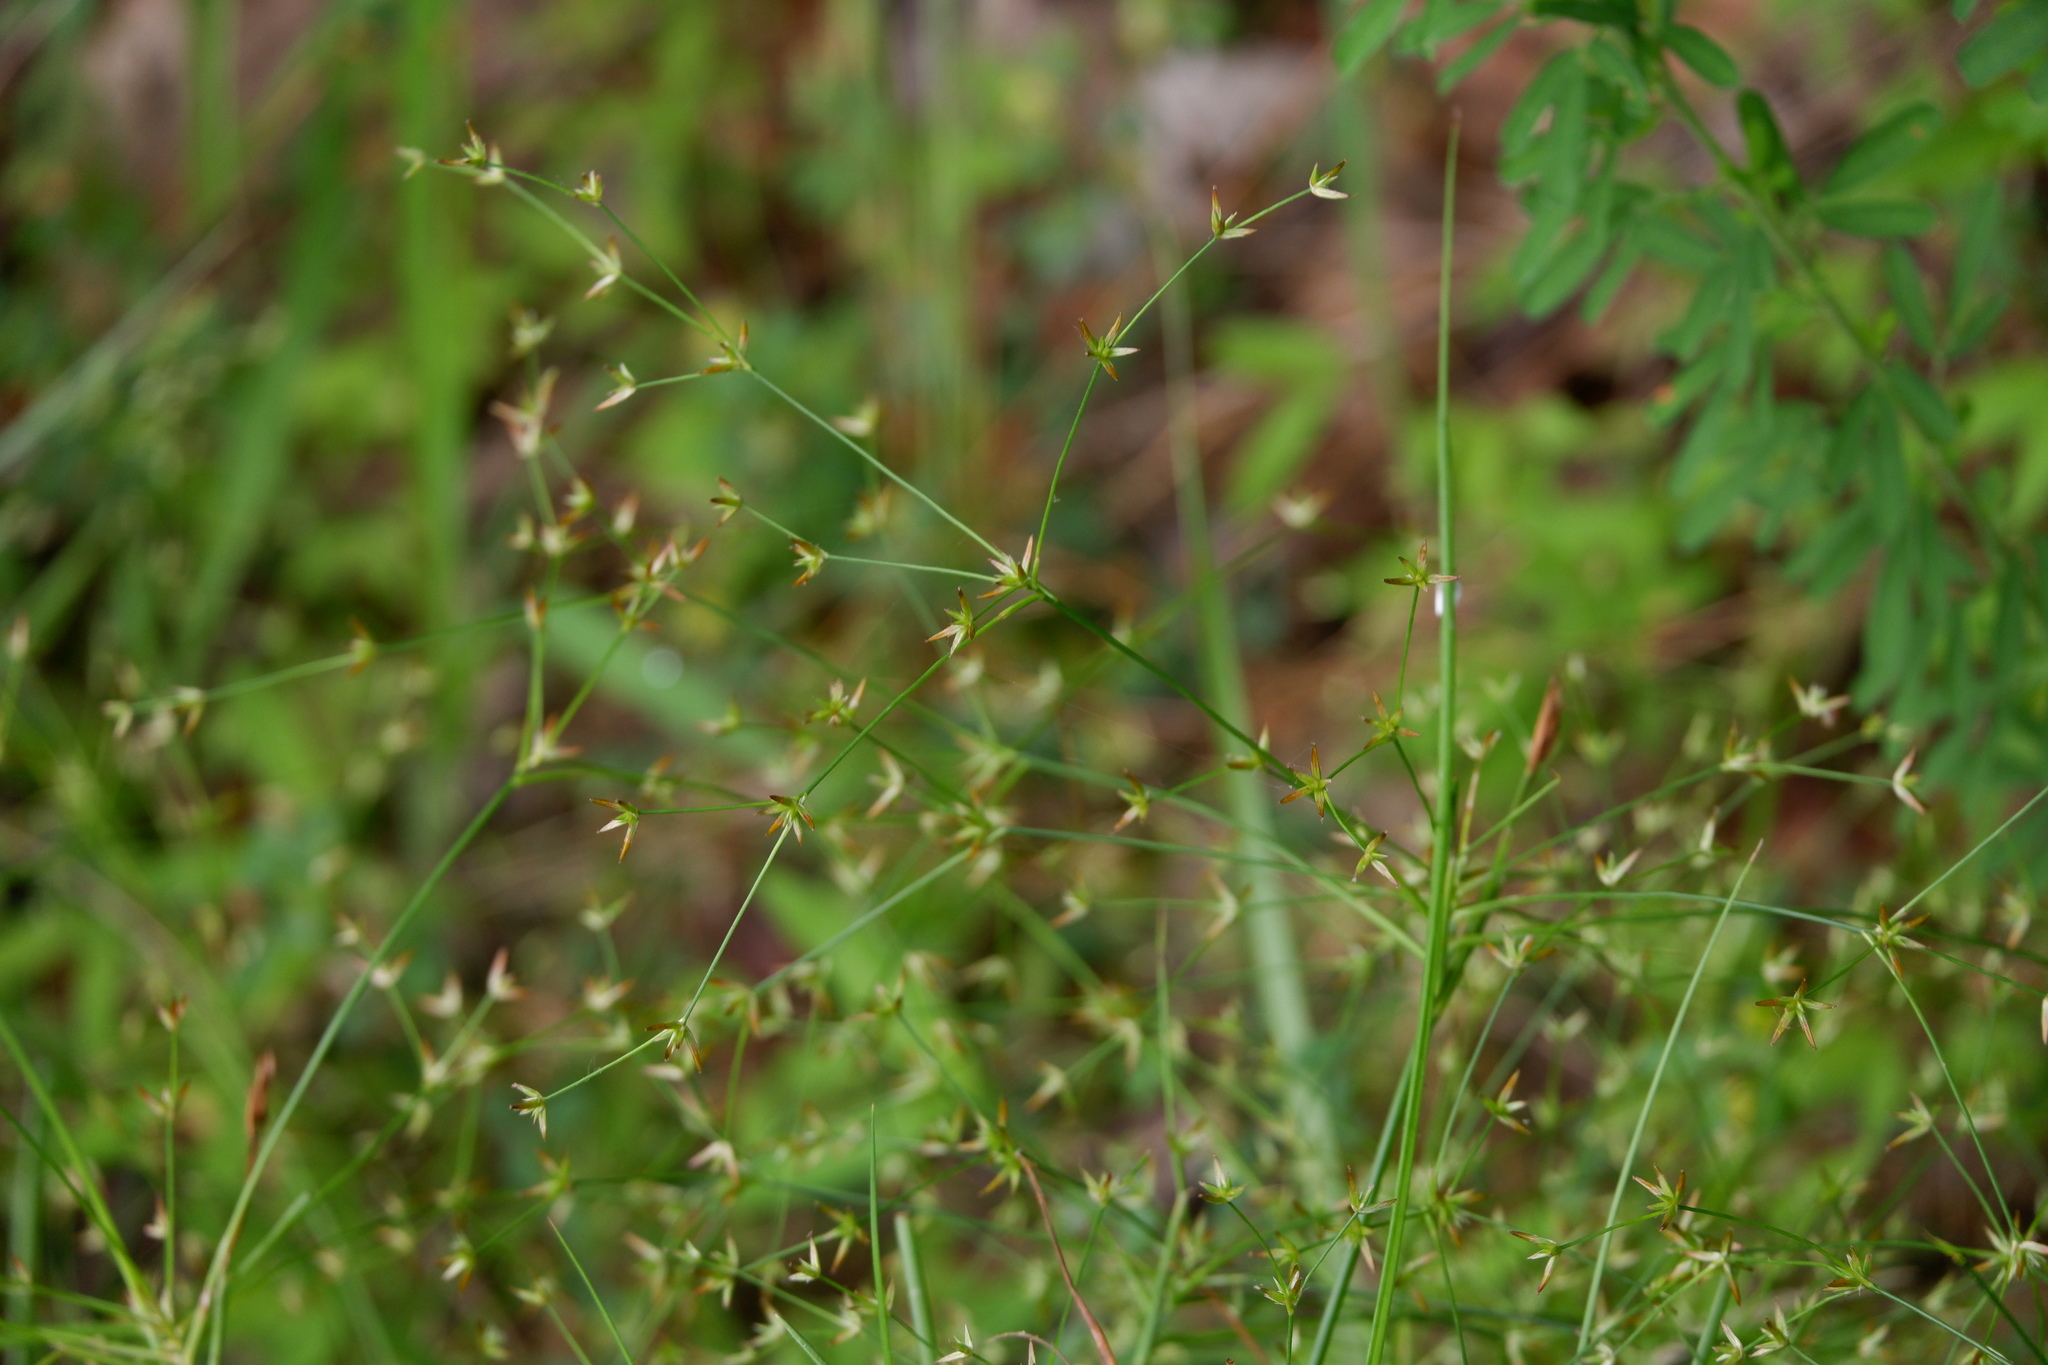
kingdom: Plantae
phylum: Tracheophyta
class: Liliopsida
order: Poales
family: Juncaceae
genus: Juncus
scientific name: Juncus diffusissimus
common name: Slimpod rush
